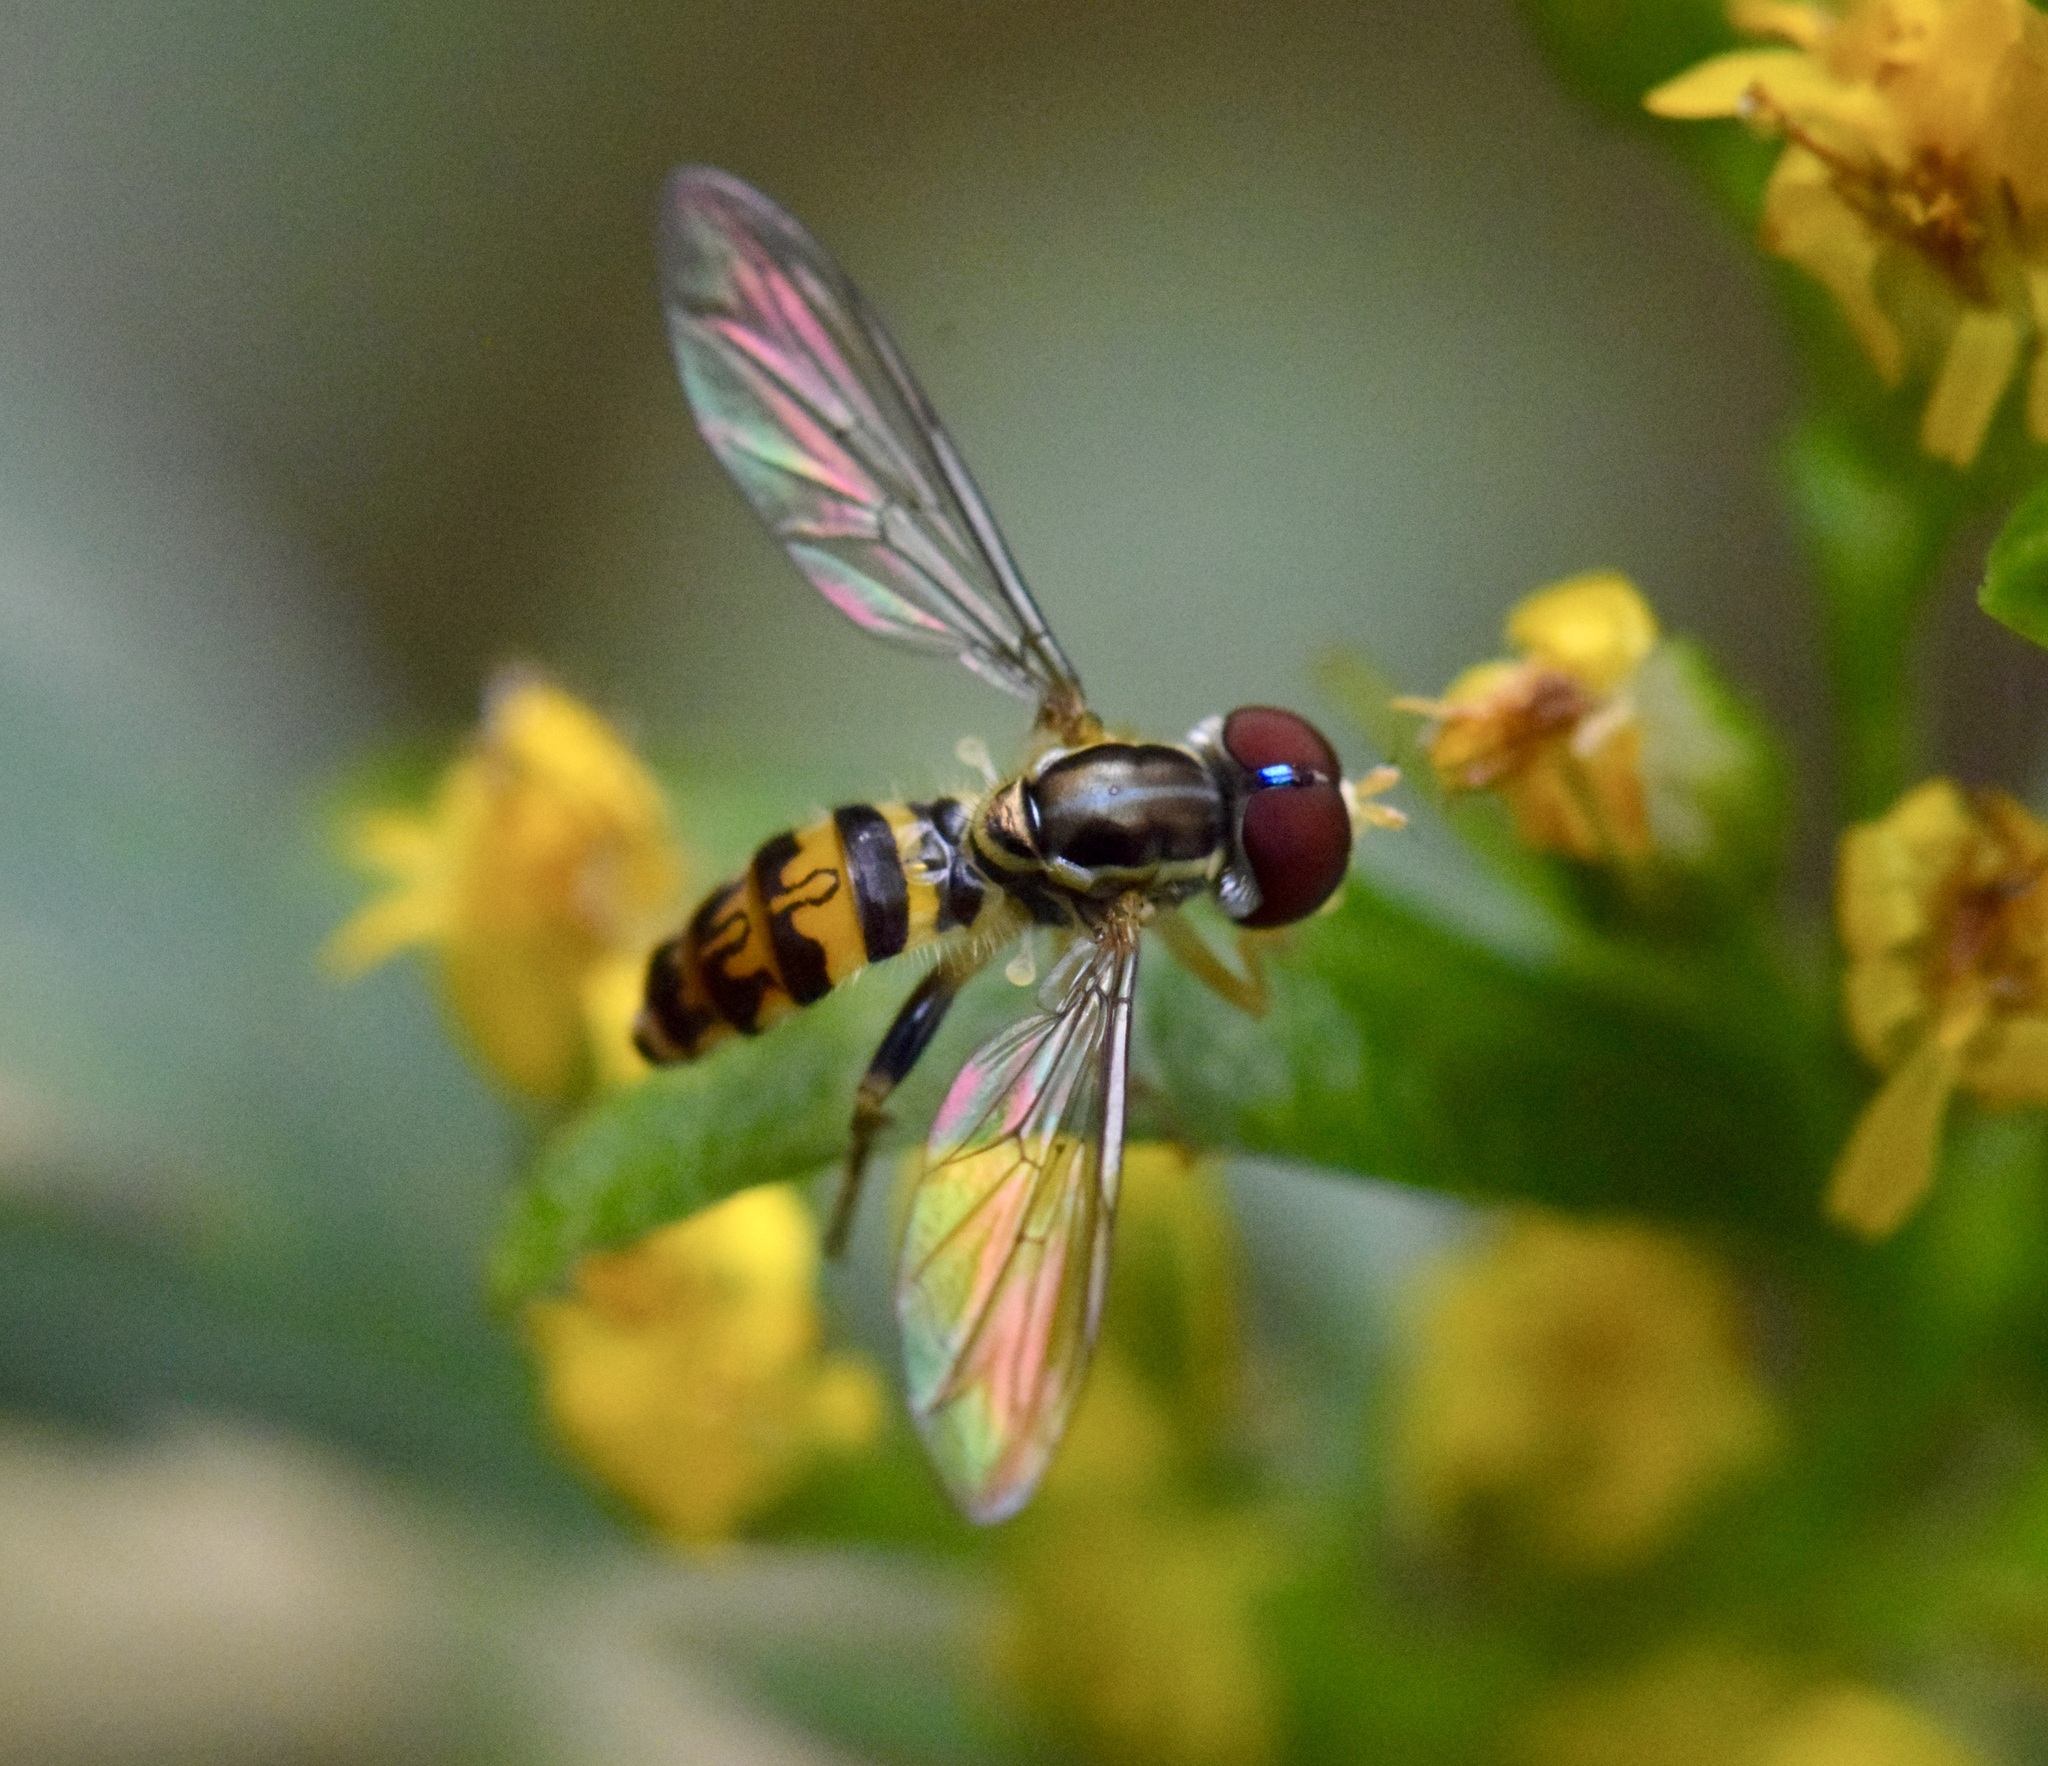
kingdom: Animalia
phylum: Arthropoda
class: Insecta
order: Diptera
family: Syrphidae
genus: Toxomerus
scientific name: Toxomerus geminatus
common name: Eastern calligrapher
